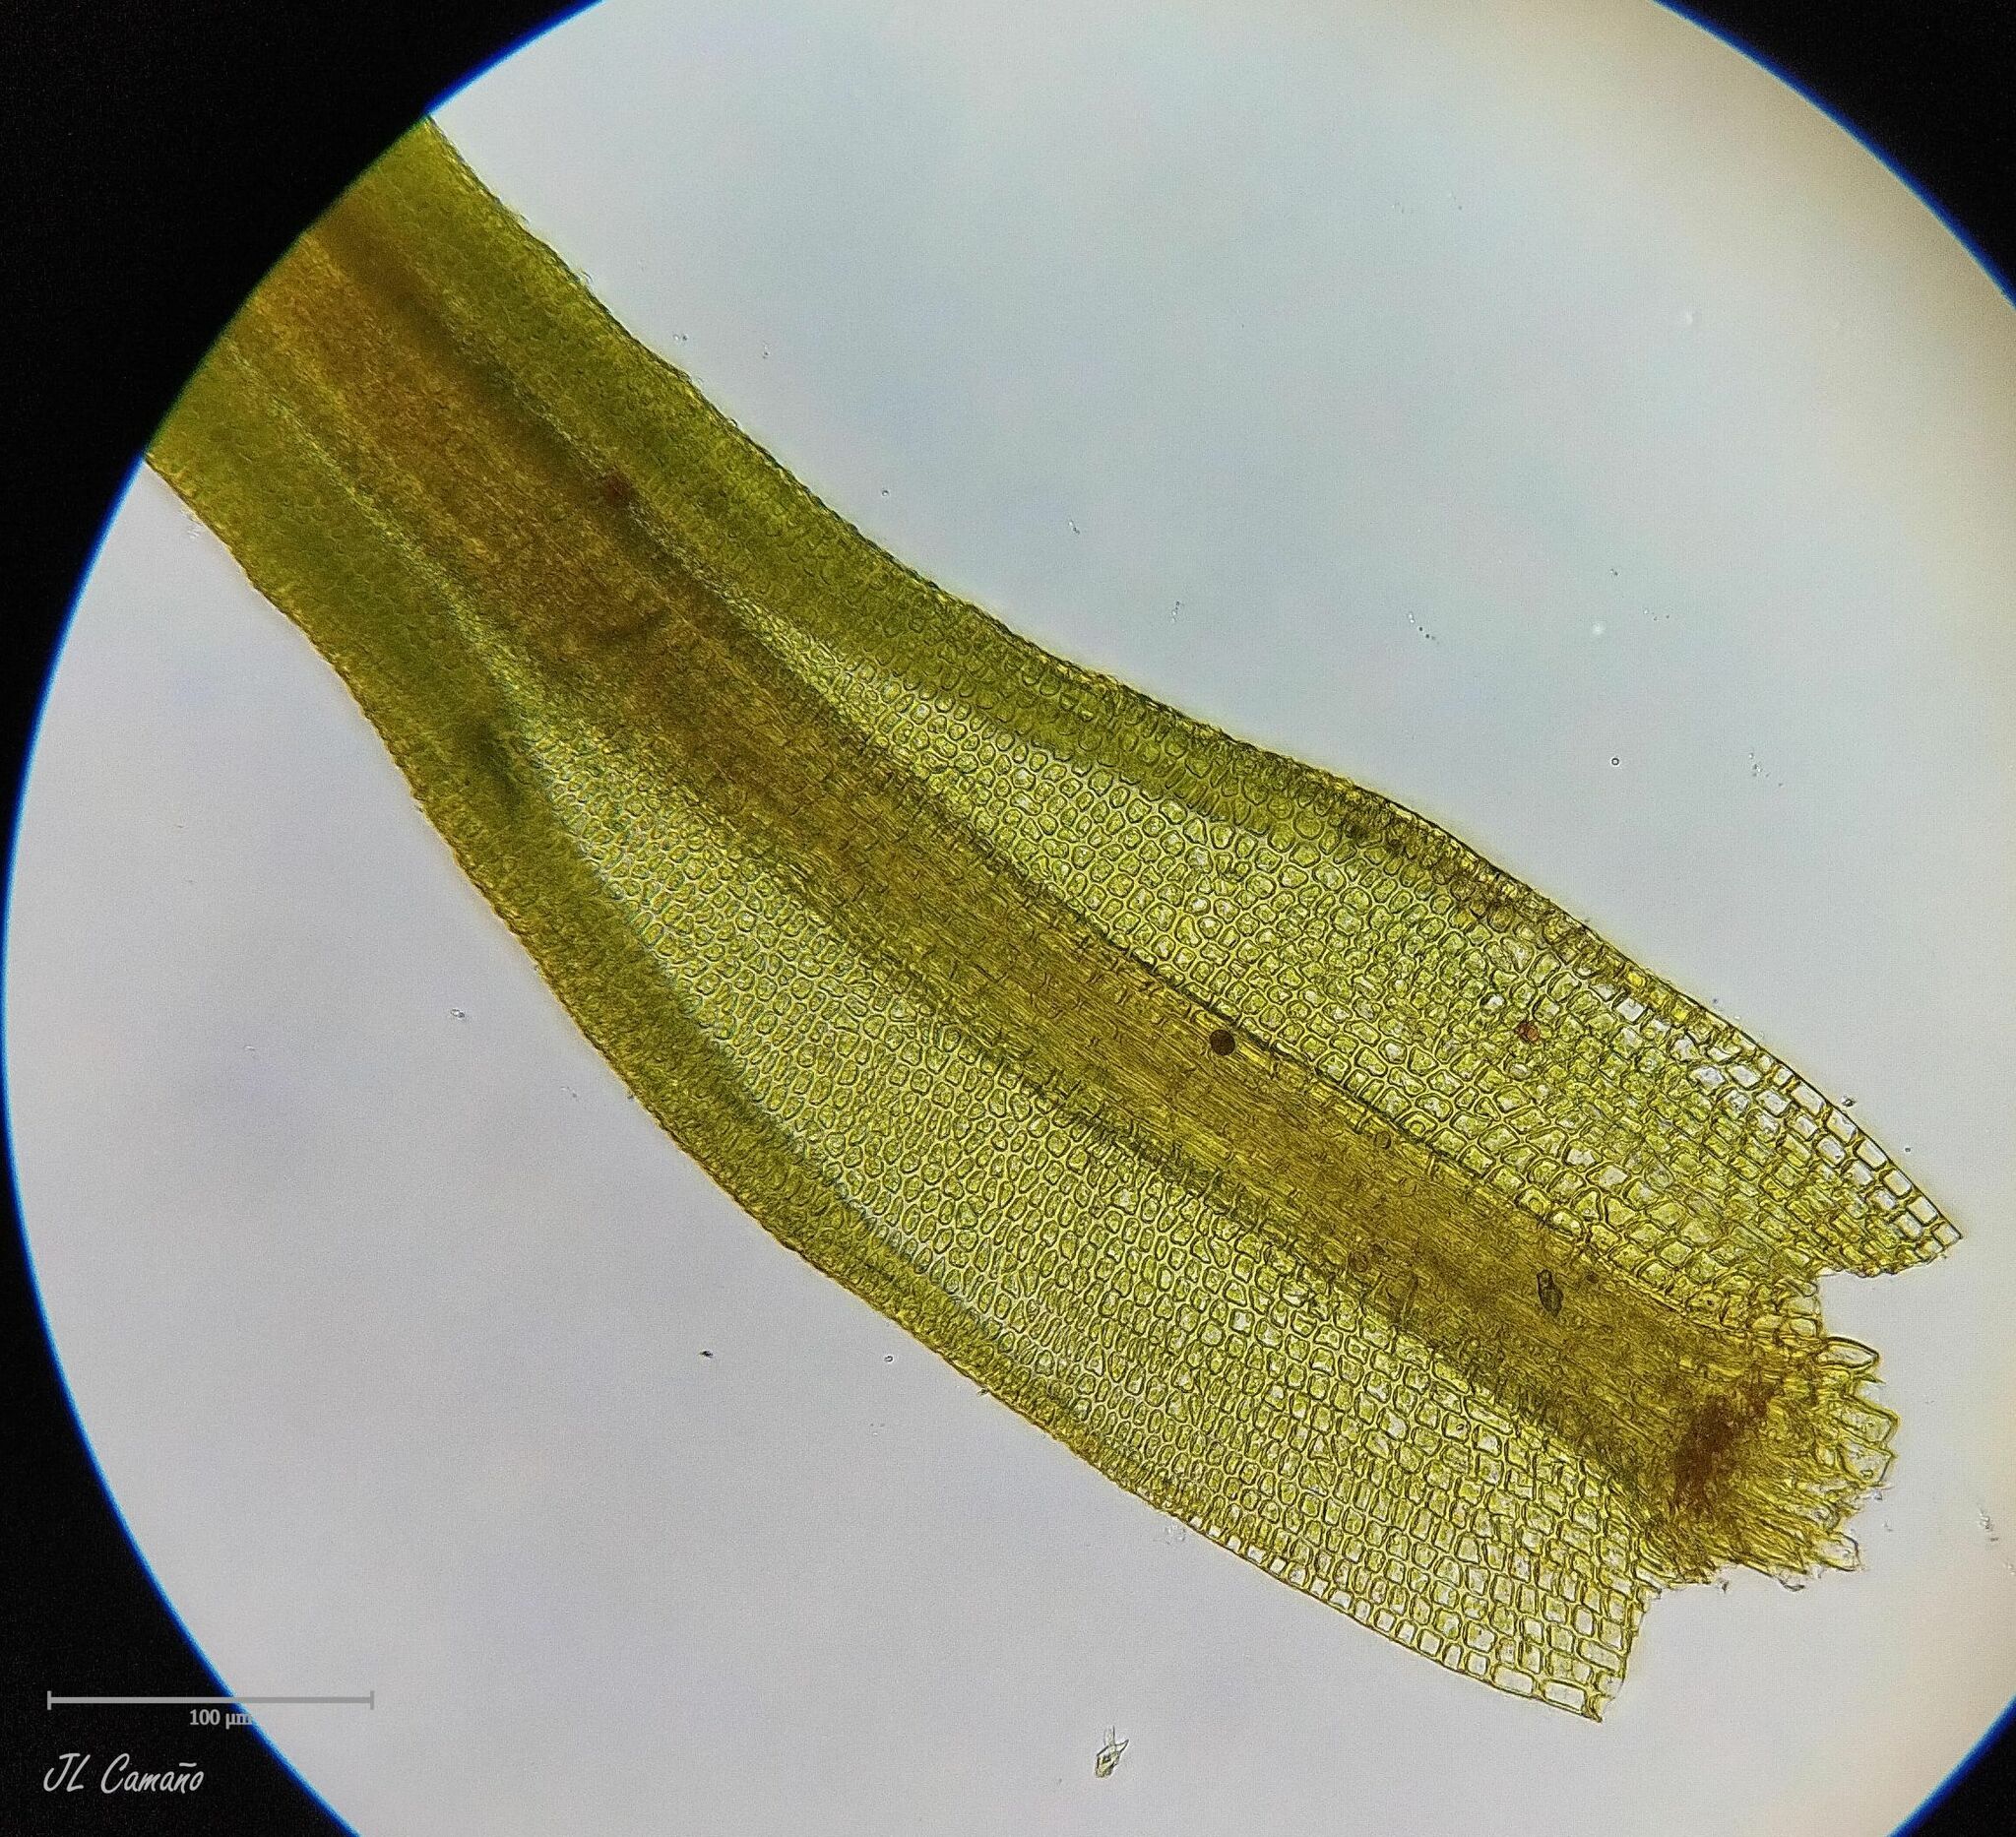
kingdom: Plantae
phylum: Bryophyta
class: Bryopsida
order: Pottiales
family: Pottiaceae
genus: Pseudocrossidium
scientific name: Pseudocrossidium revolutum
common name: Revolute beard-moss
